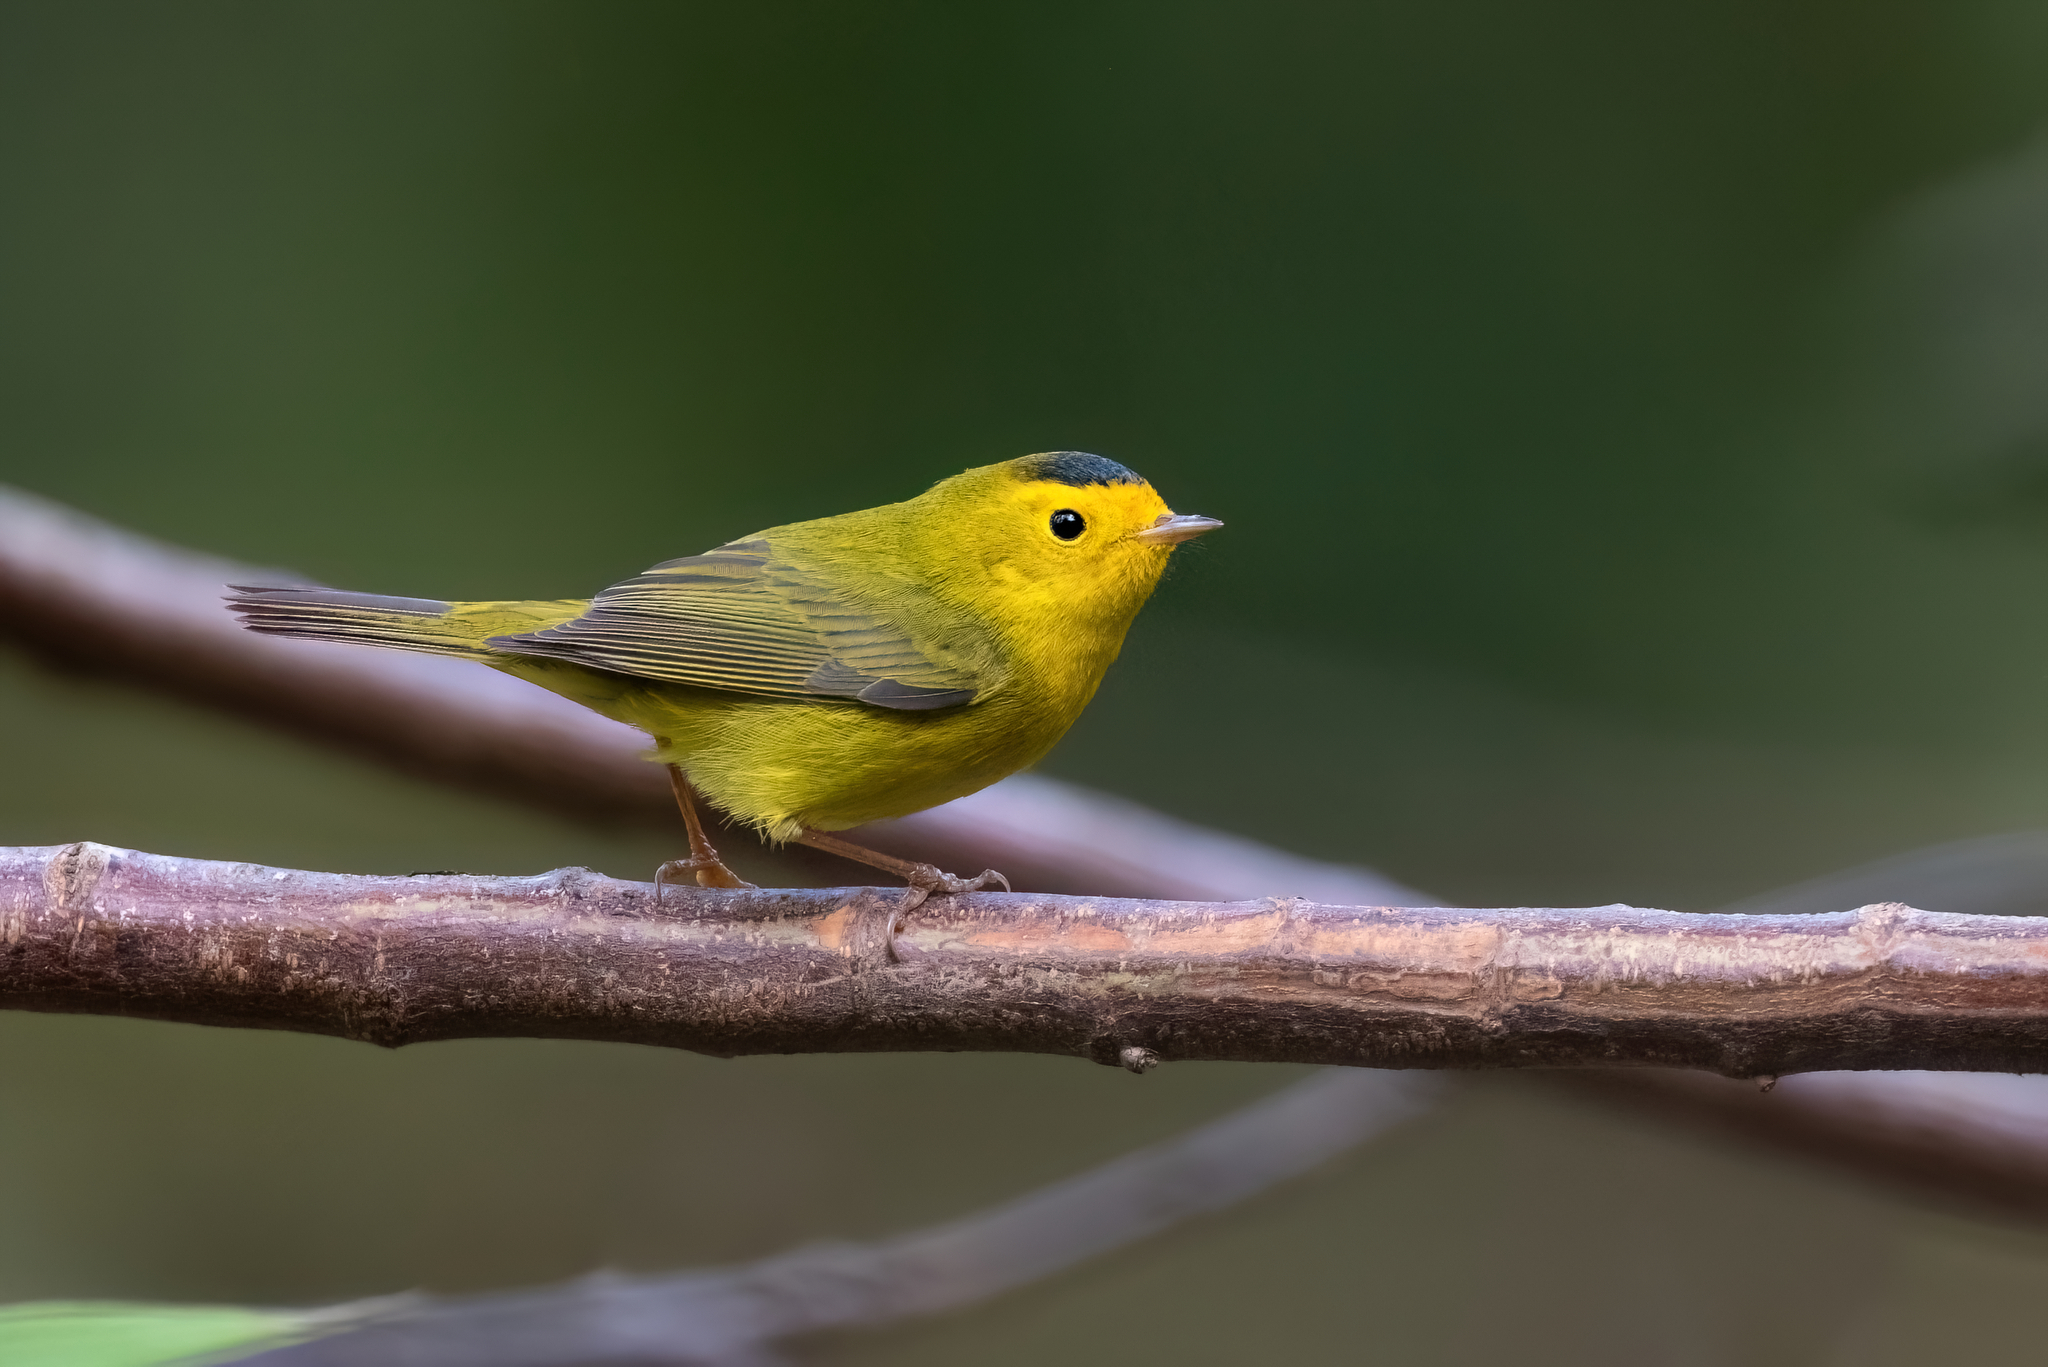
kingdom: Animalia
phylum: Chordata
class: Aves
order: Passeriformes
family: Parulidae
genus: Cardellina
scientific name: Cardellina pusilla
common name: Wilson's warbler
